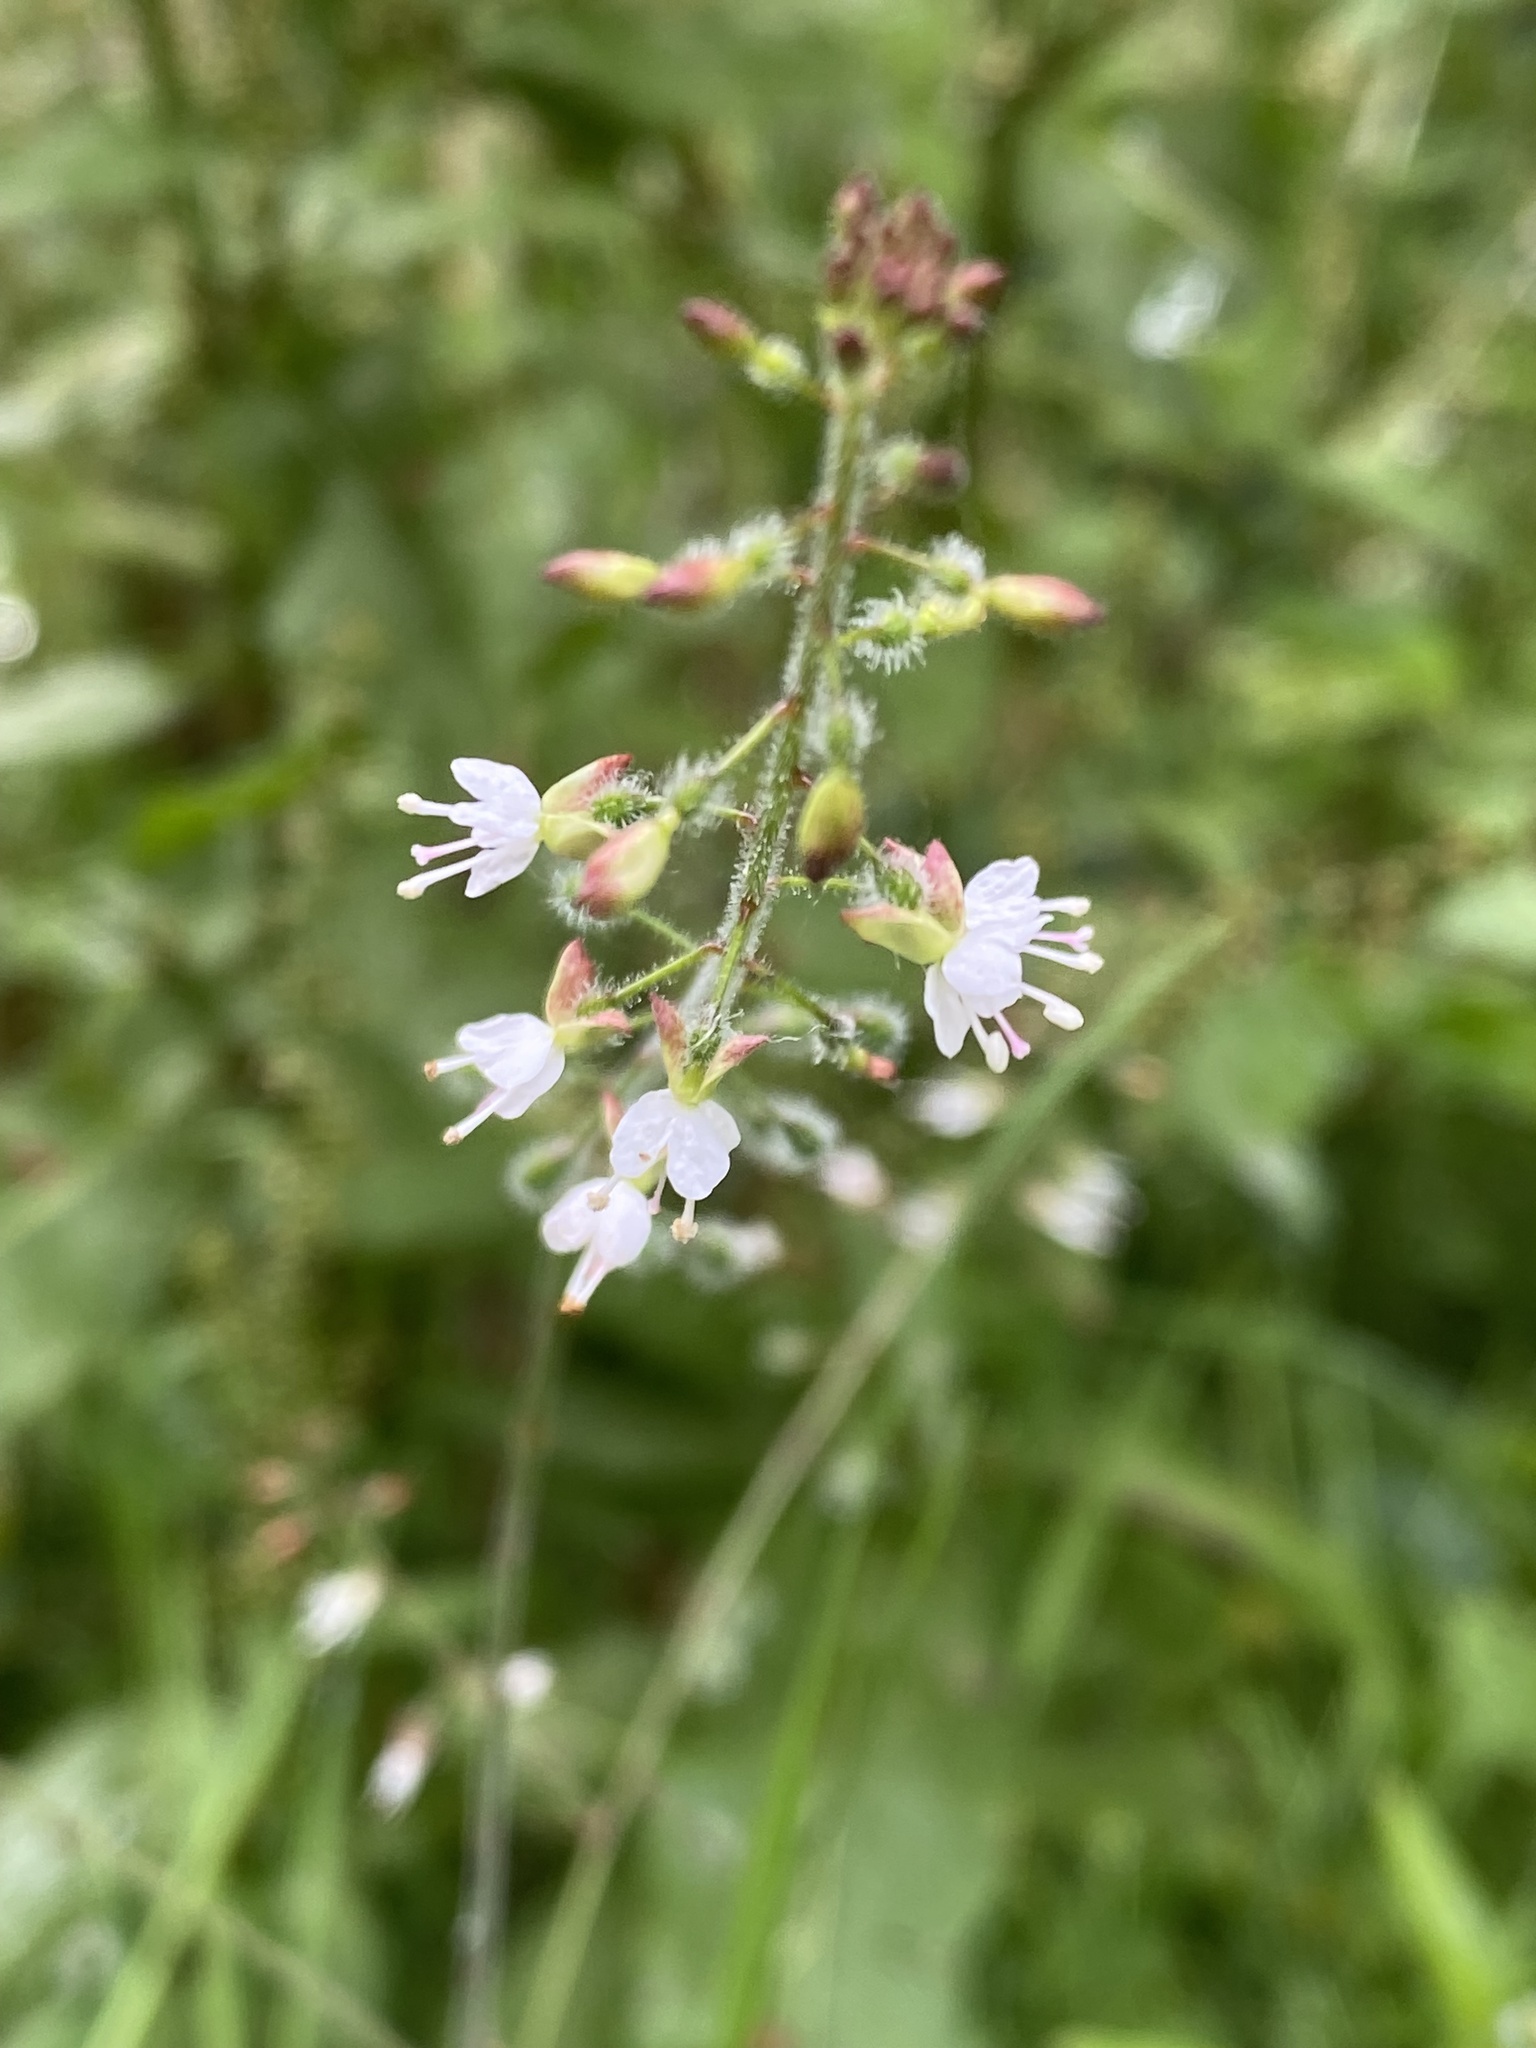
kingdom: Plantae
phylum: Tracheophyta
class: Magnoliopsida
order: Myrtales
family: Onagraceae
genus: Circaea
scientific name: Circaea lutetiana
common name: Enchanter's-nightshade
